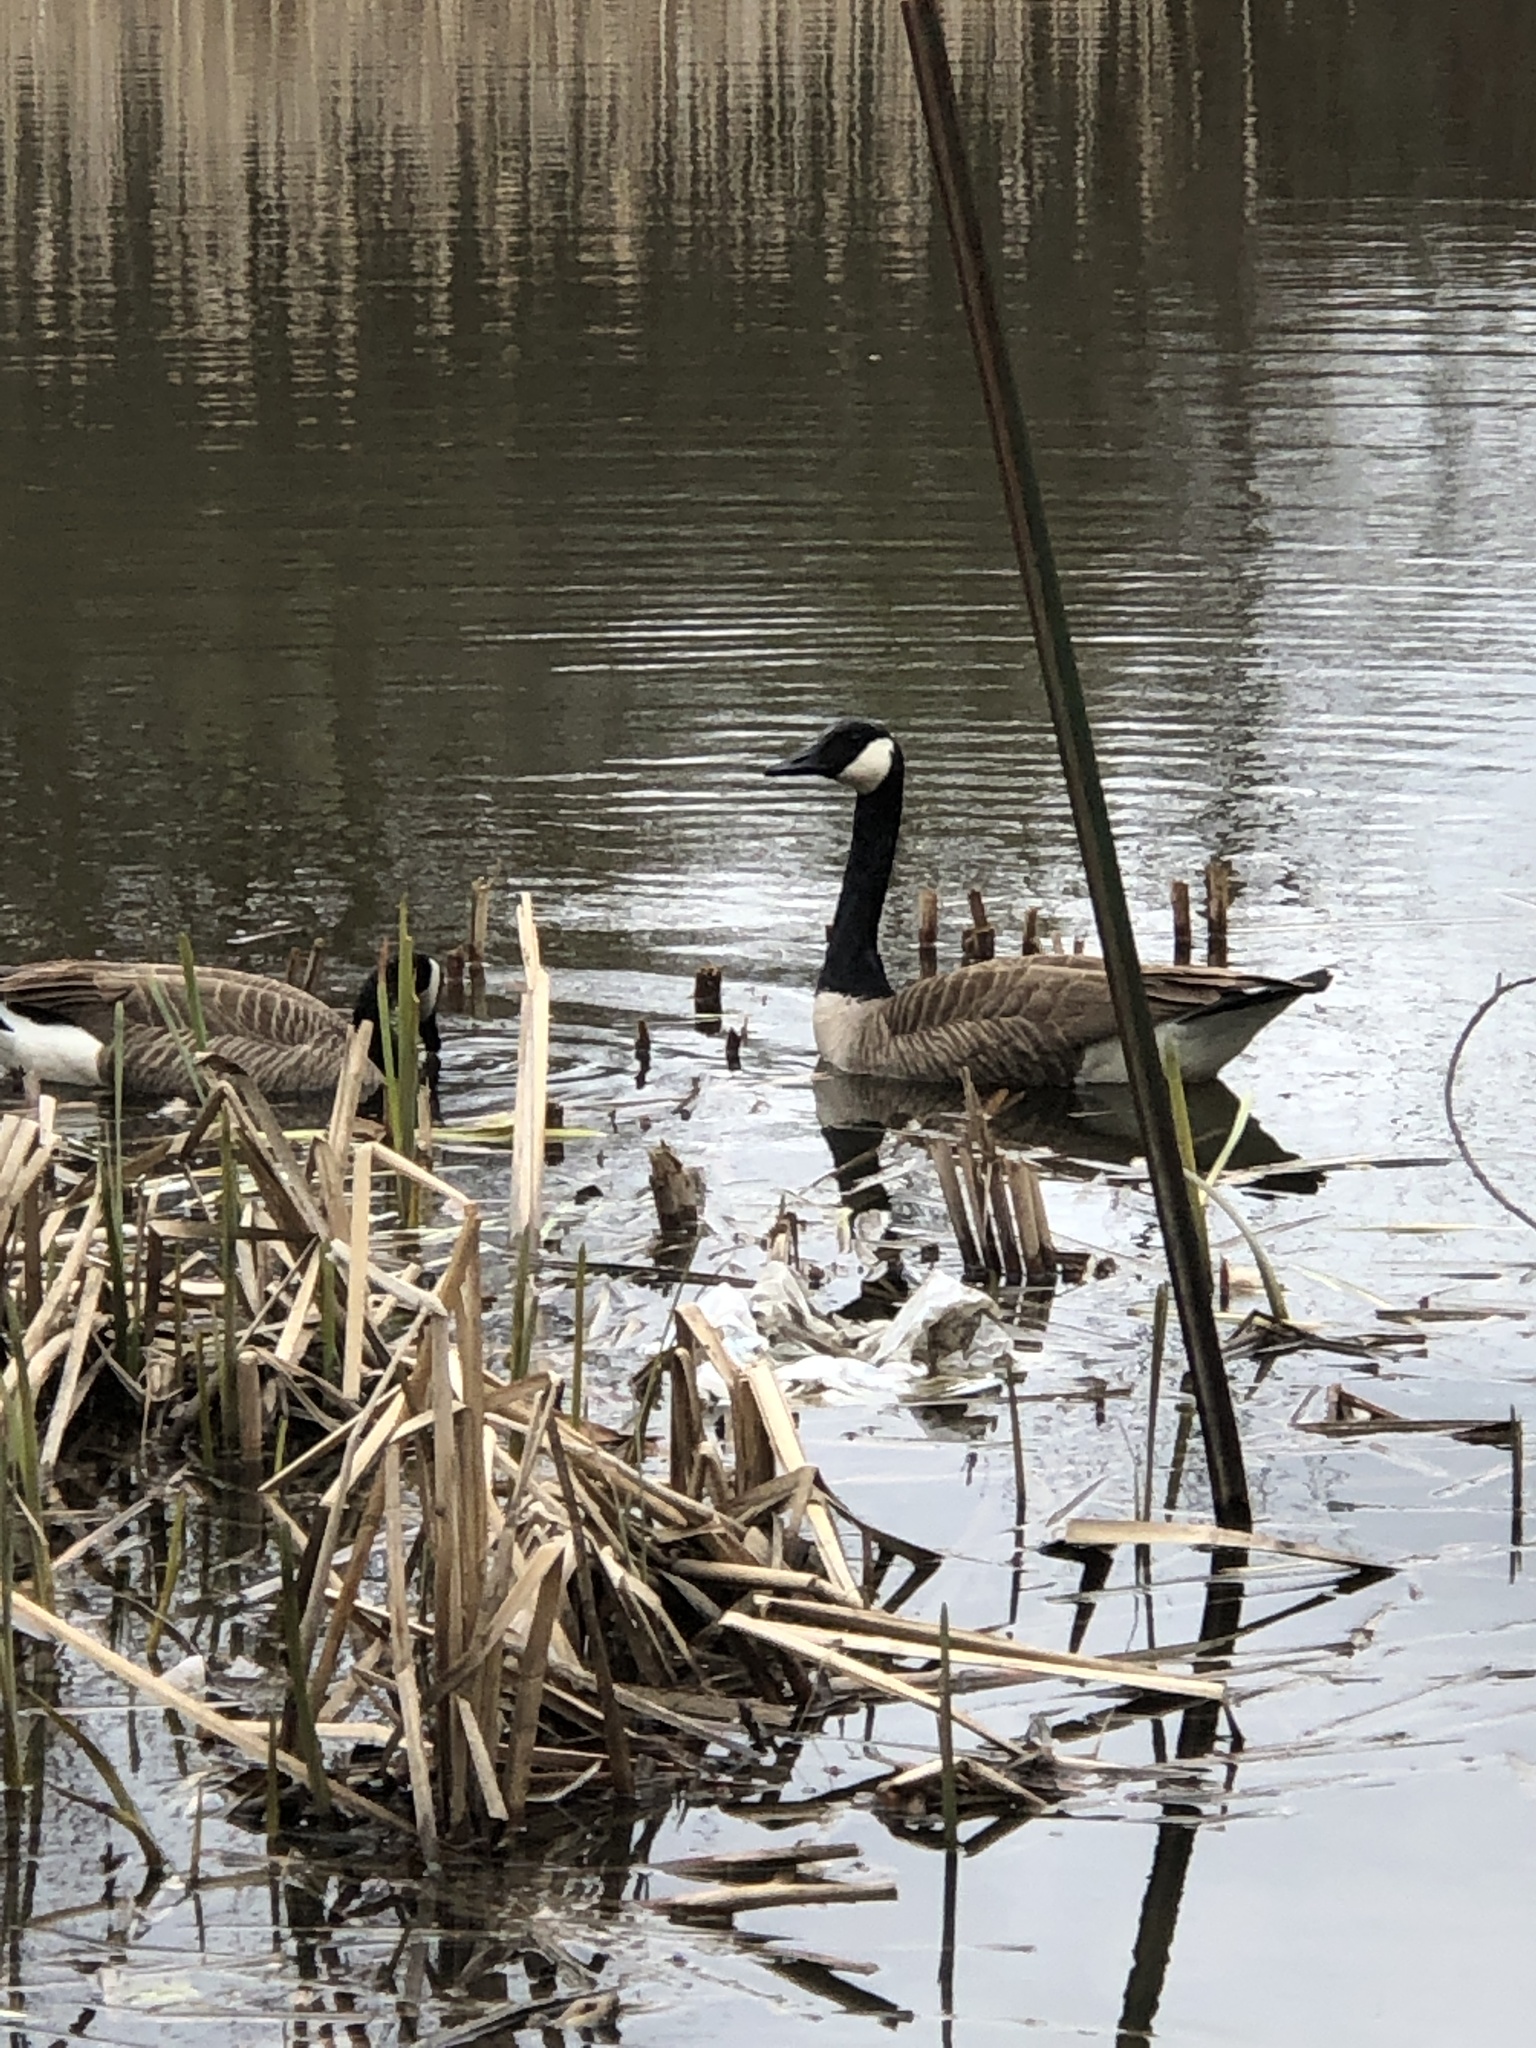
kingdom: Animalia
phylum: Chordata
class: Aves
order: Anseriformes
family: Anatidae
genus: Branta
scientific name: Branta canadensis
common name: Canada goose
